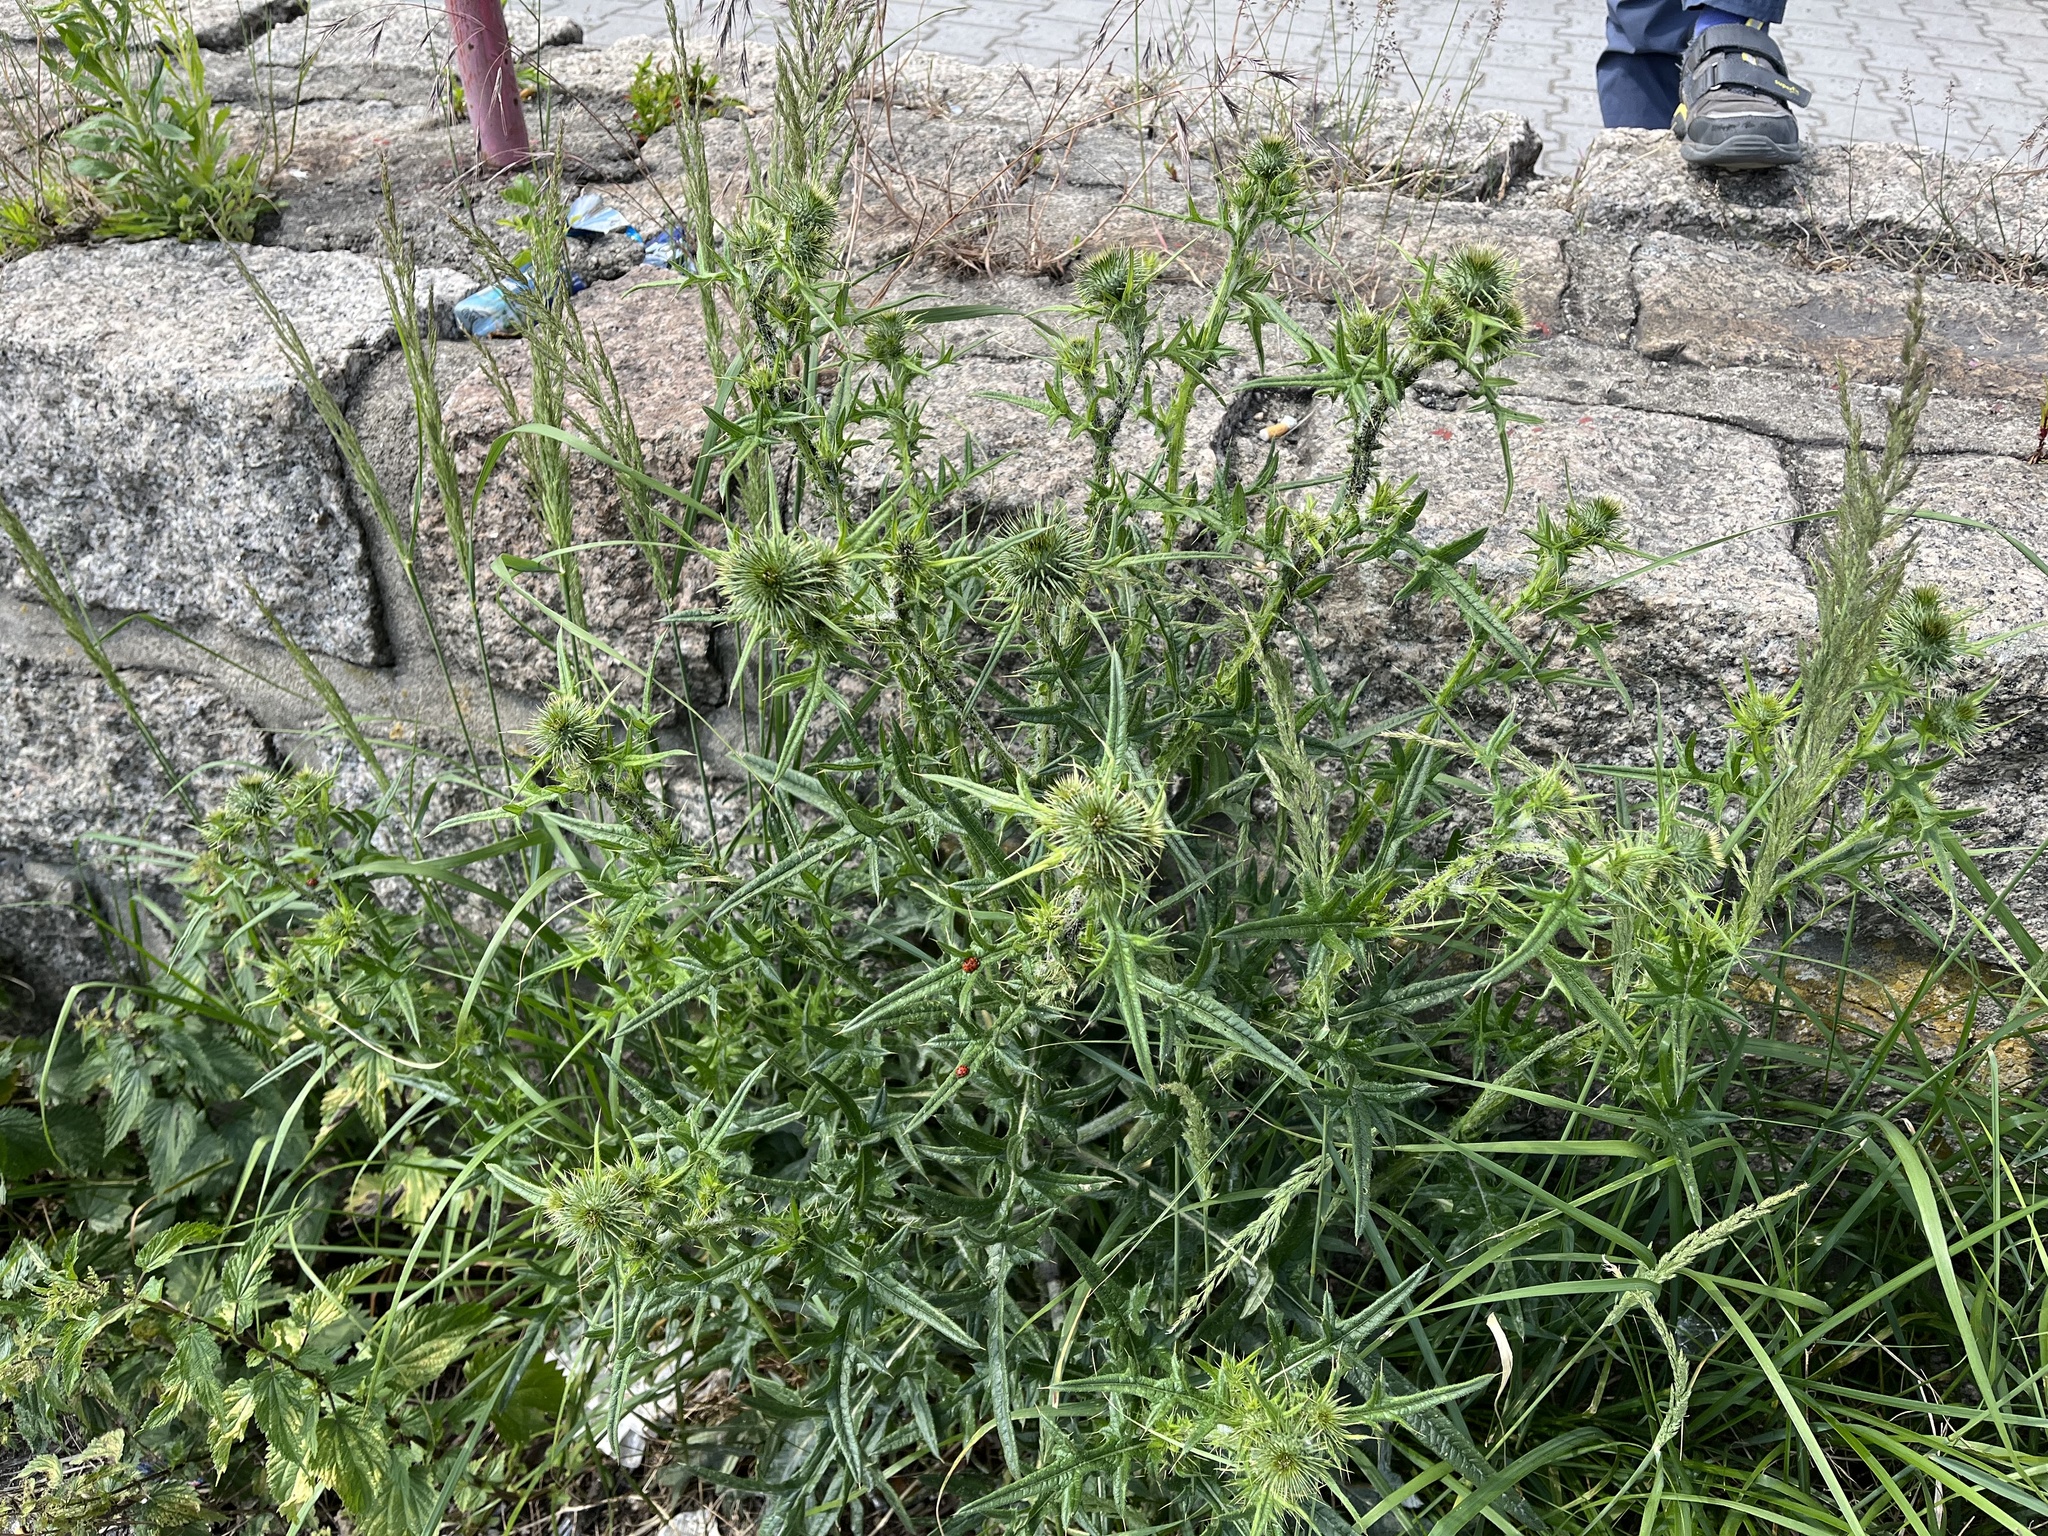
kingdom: Plantae
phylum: Tracheophyta
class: Magnoliopsida
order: Asterales
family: Asteraceae
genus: Cirsium
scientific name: Cirsium vulgare
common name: Bull thistle
